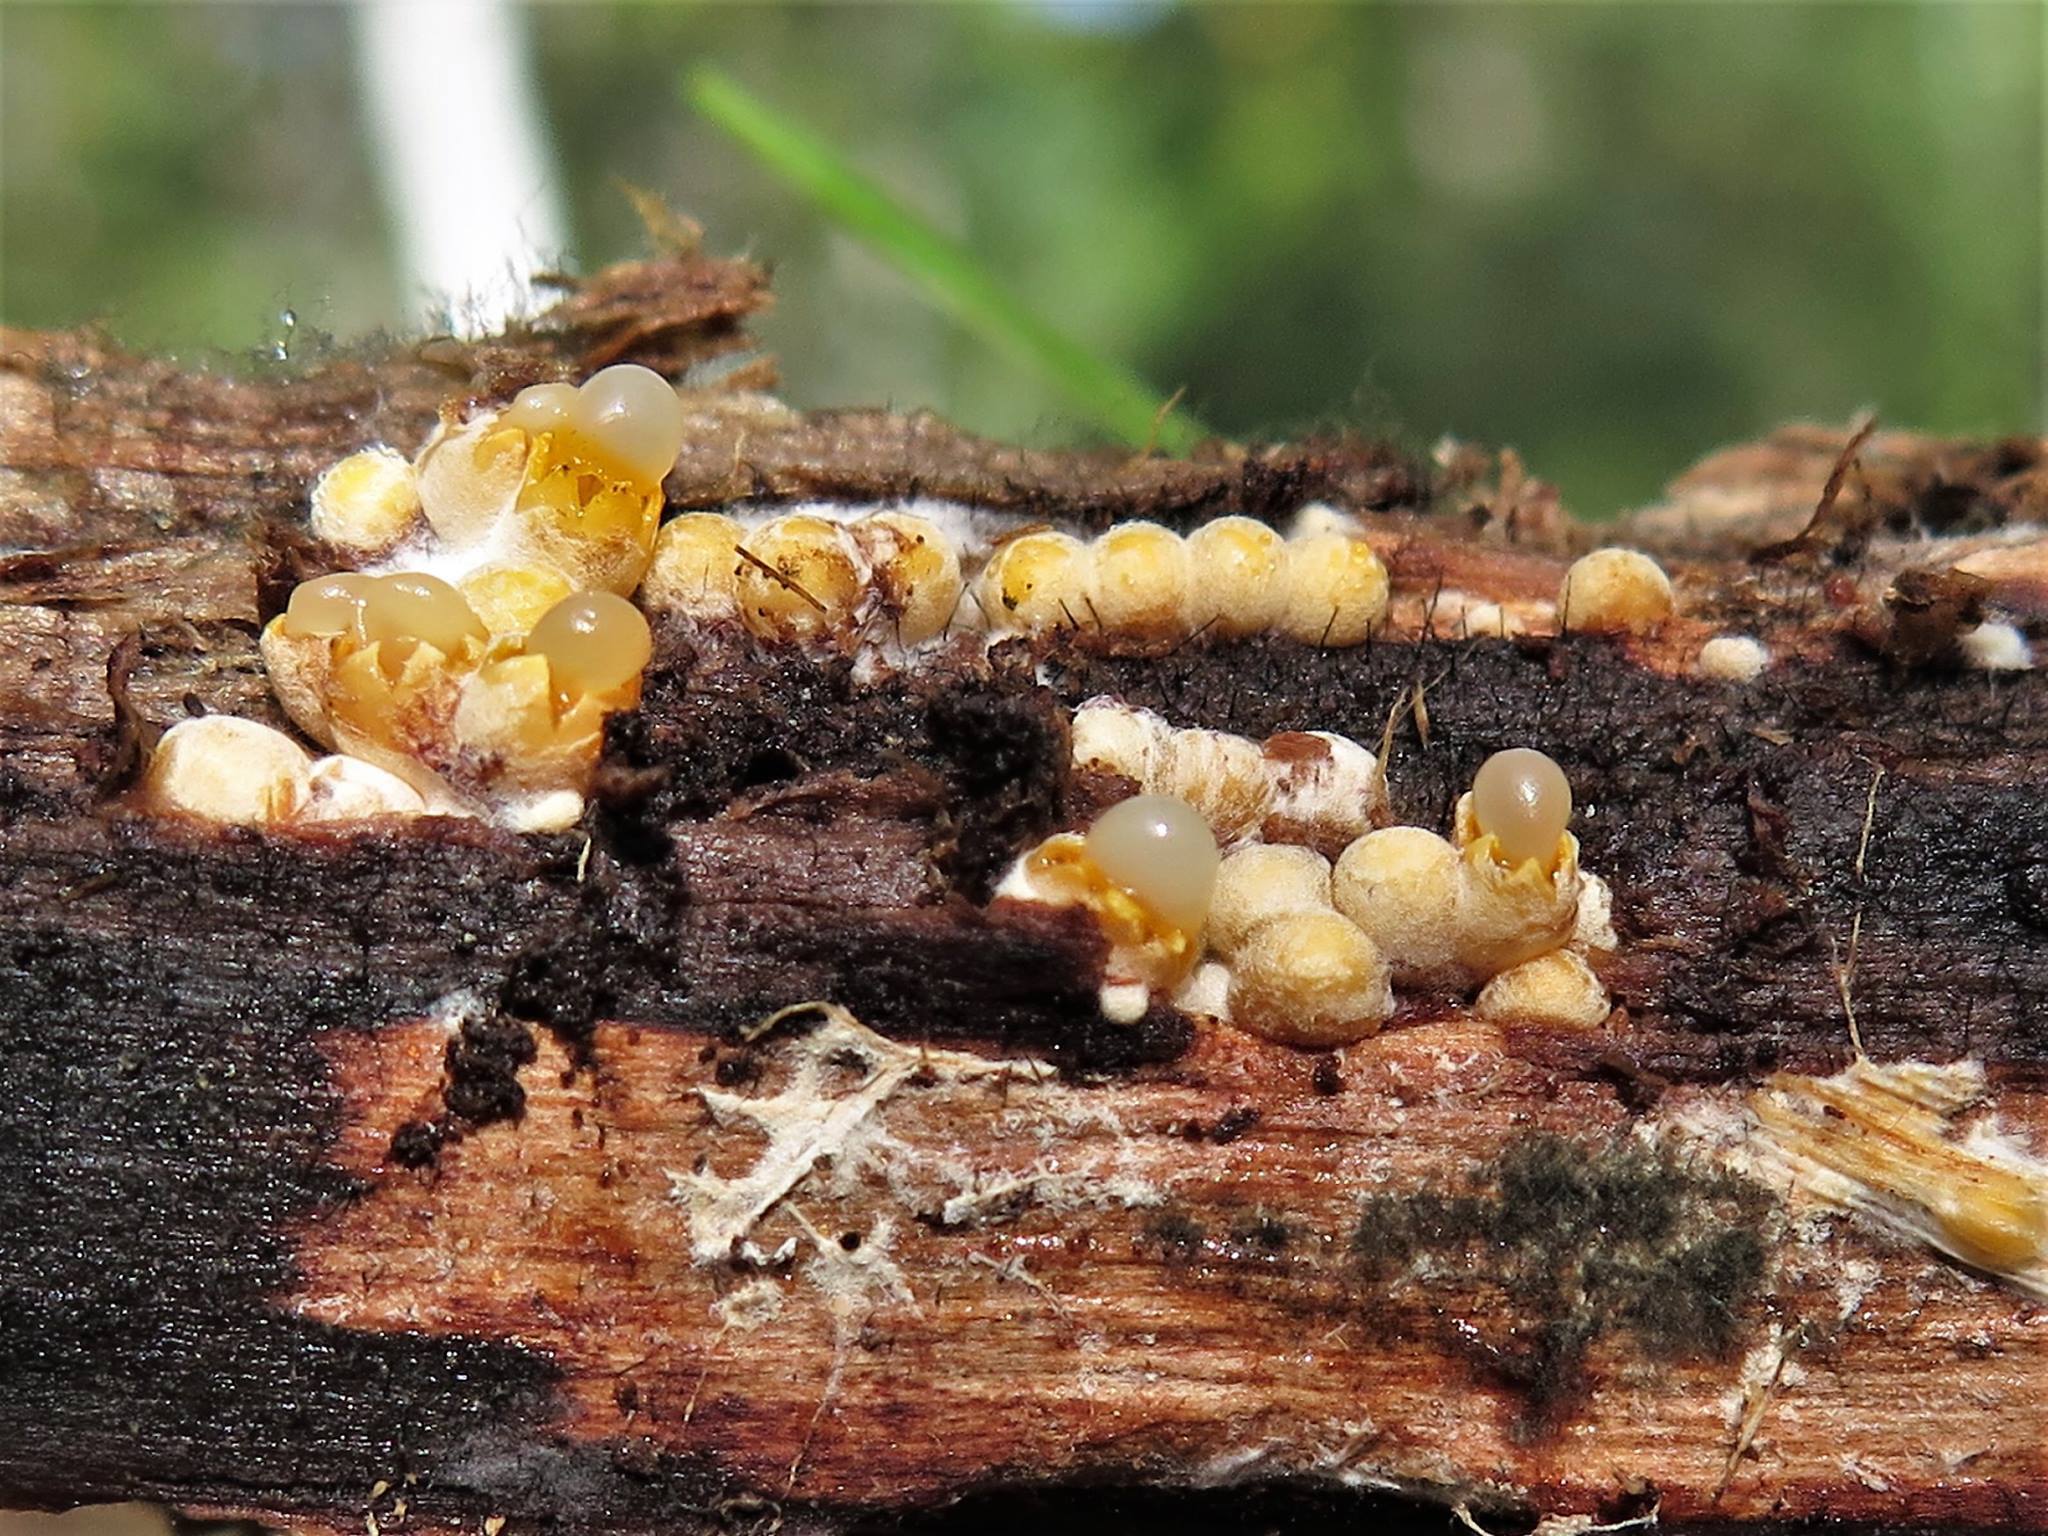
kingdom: Fungi
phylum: Basidiomycota
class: Agaricomycetes
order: Geastrales
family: Geastraceae
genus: Sphaerobolus
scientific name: Sphaerobolus stellatus
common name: Cannon fungus
